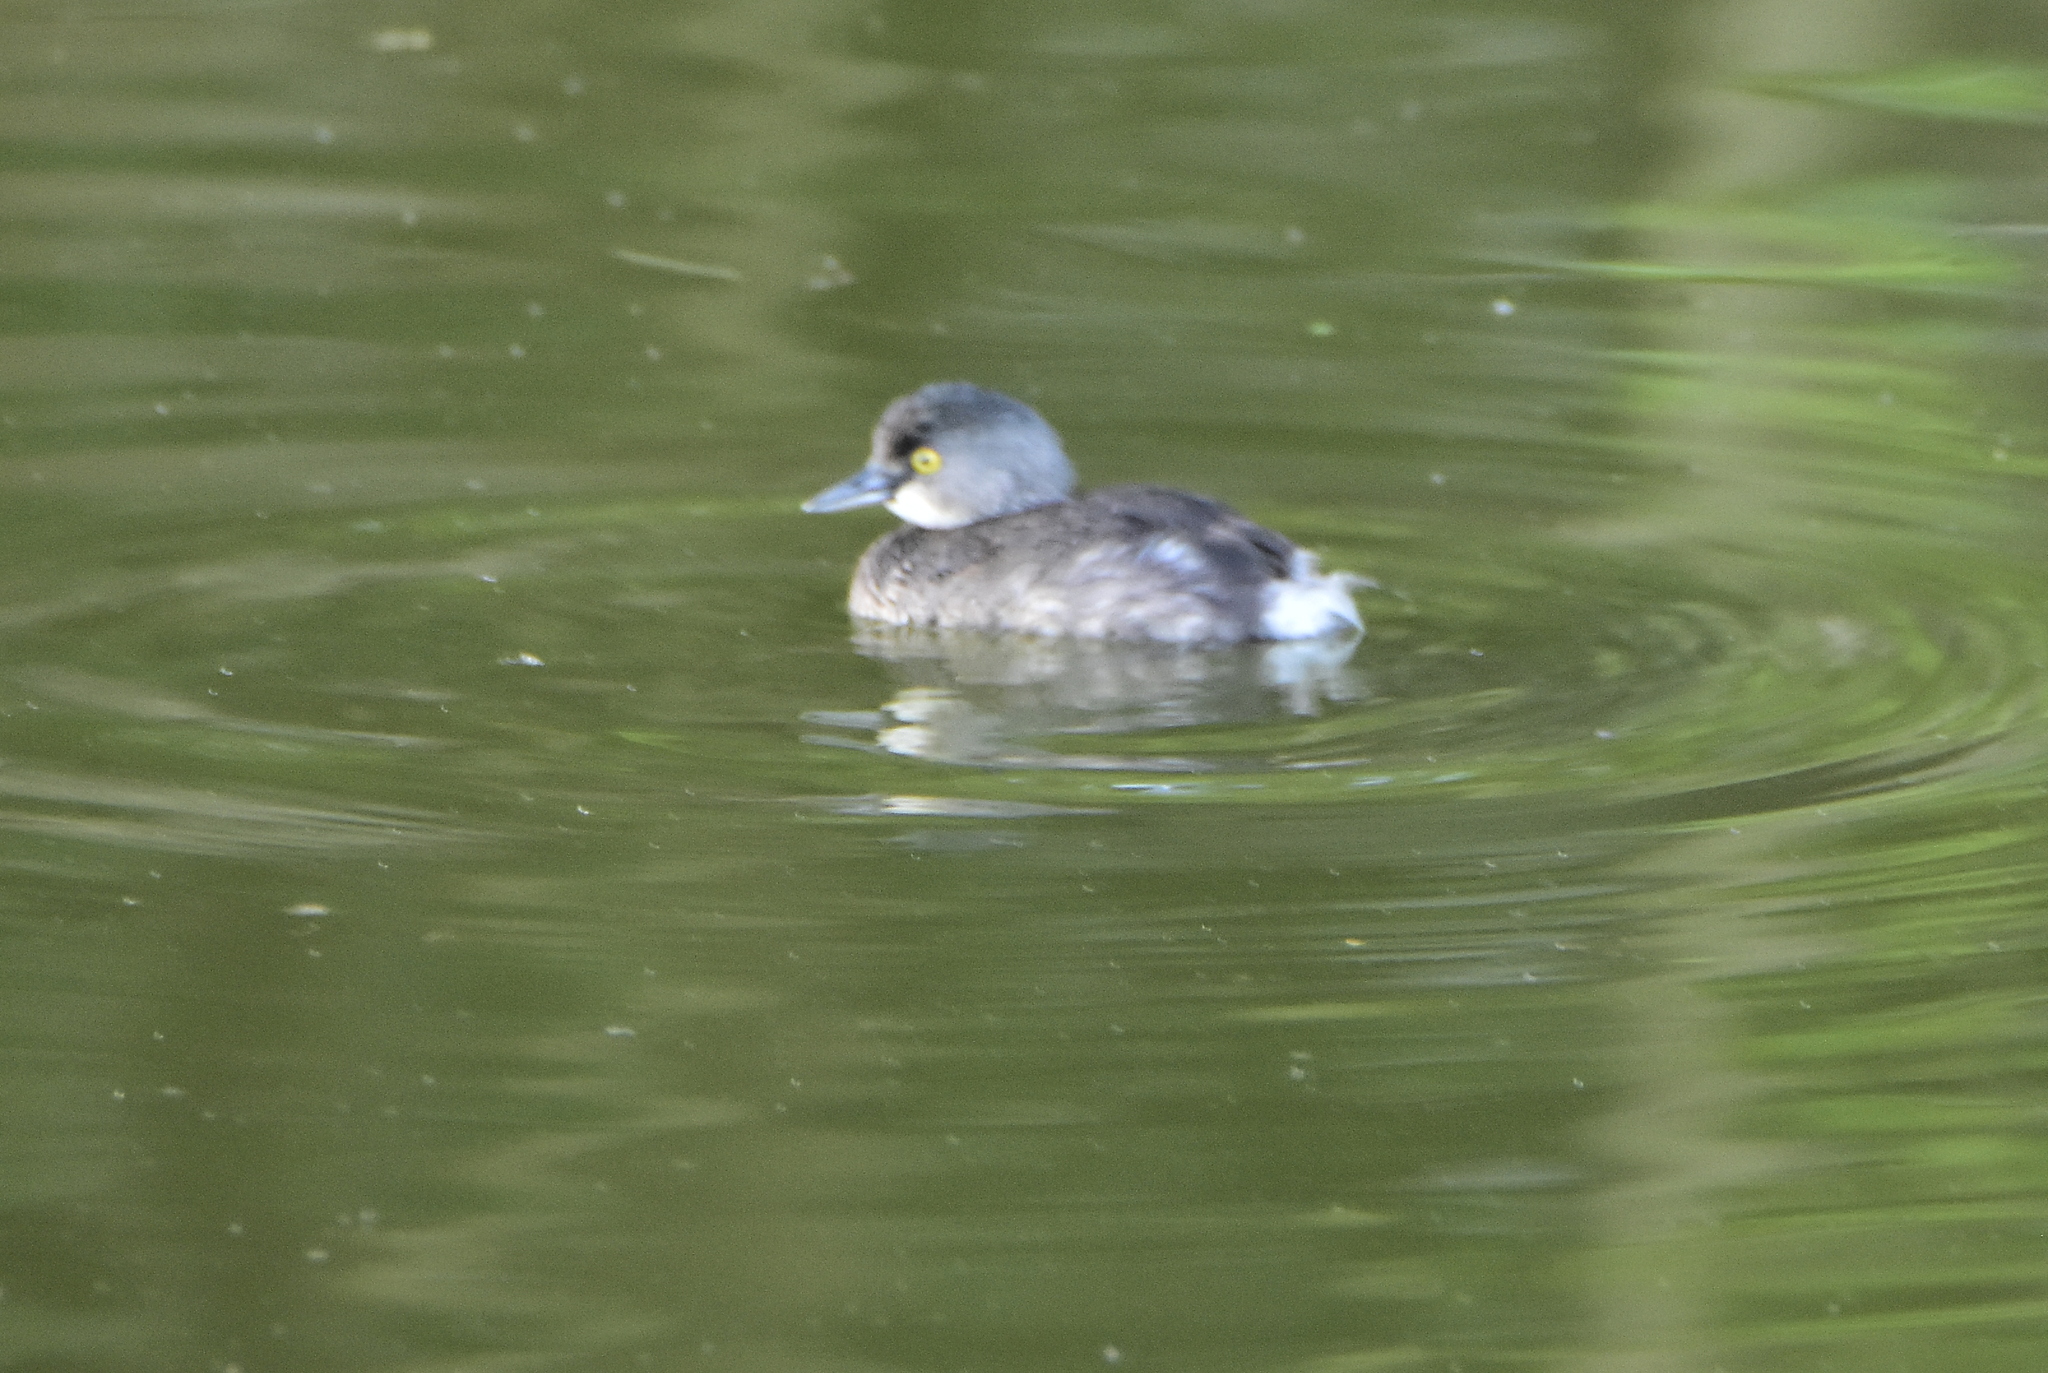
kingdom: Animalia
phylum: Chordata
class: Aves
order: Podicipediformes
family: Podicipedidae
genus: Tachybaptus
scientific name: Tachybaptus dominicus
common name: Least grebe
